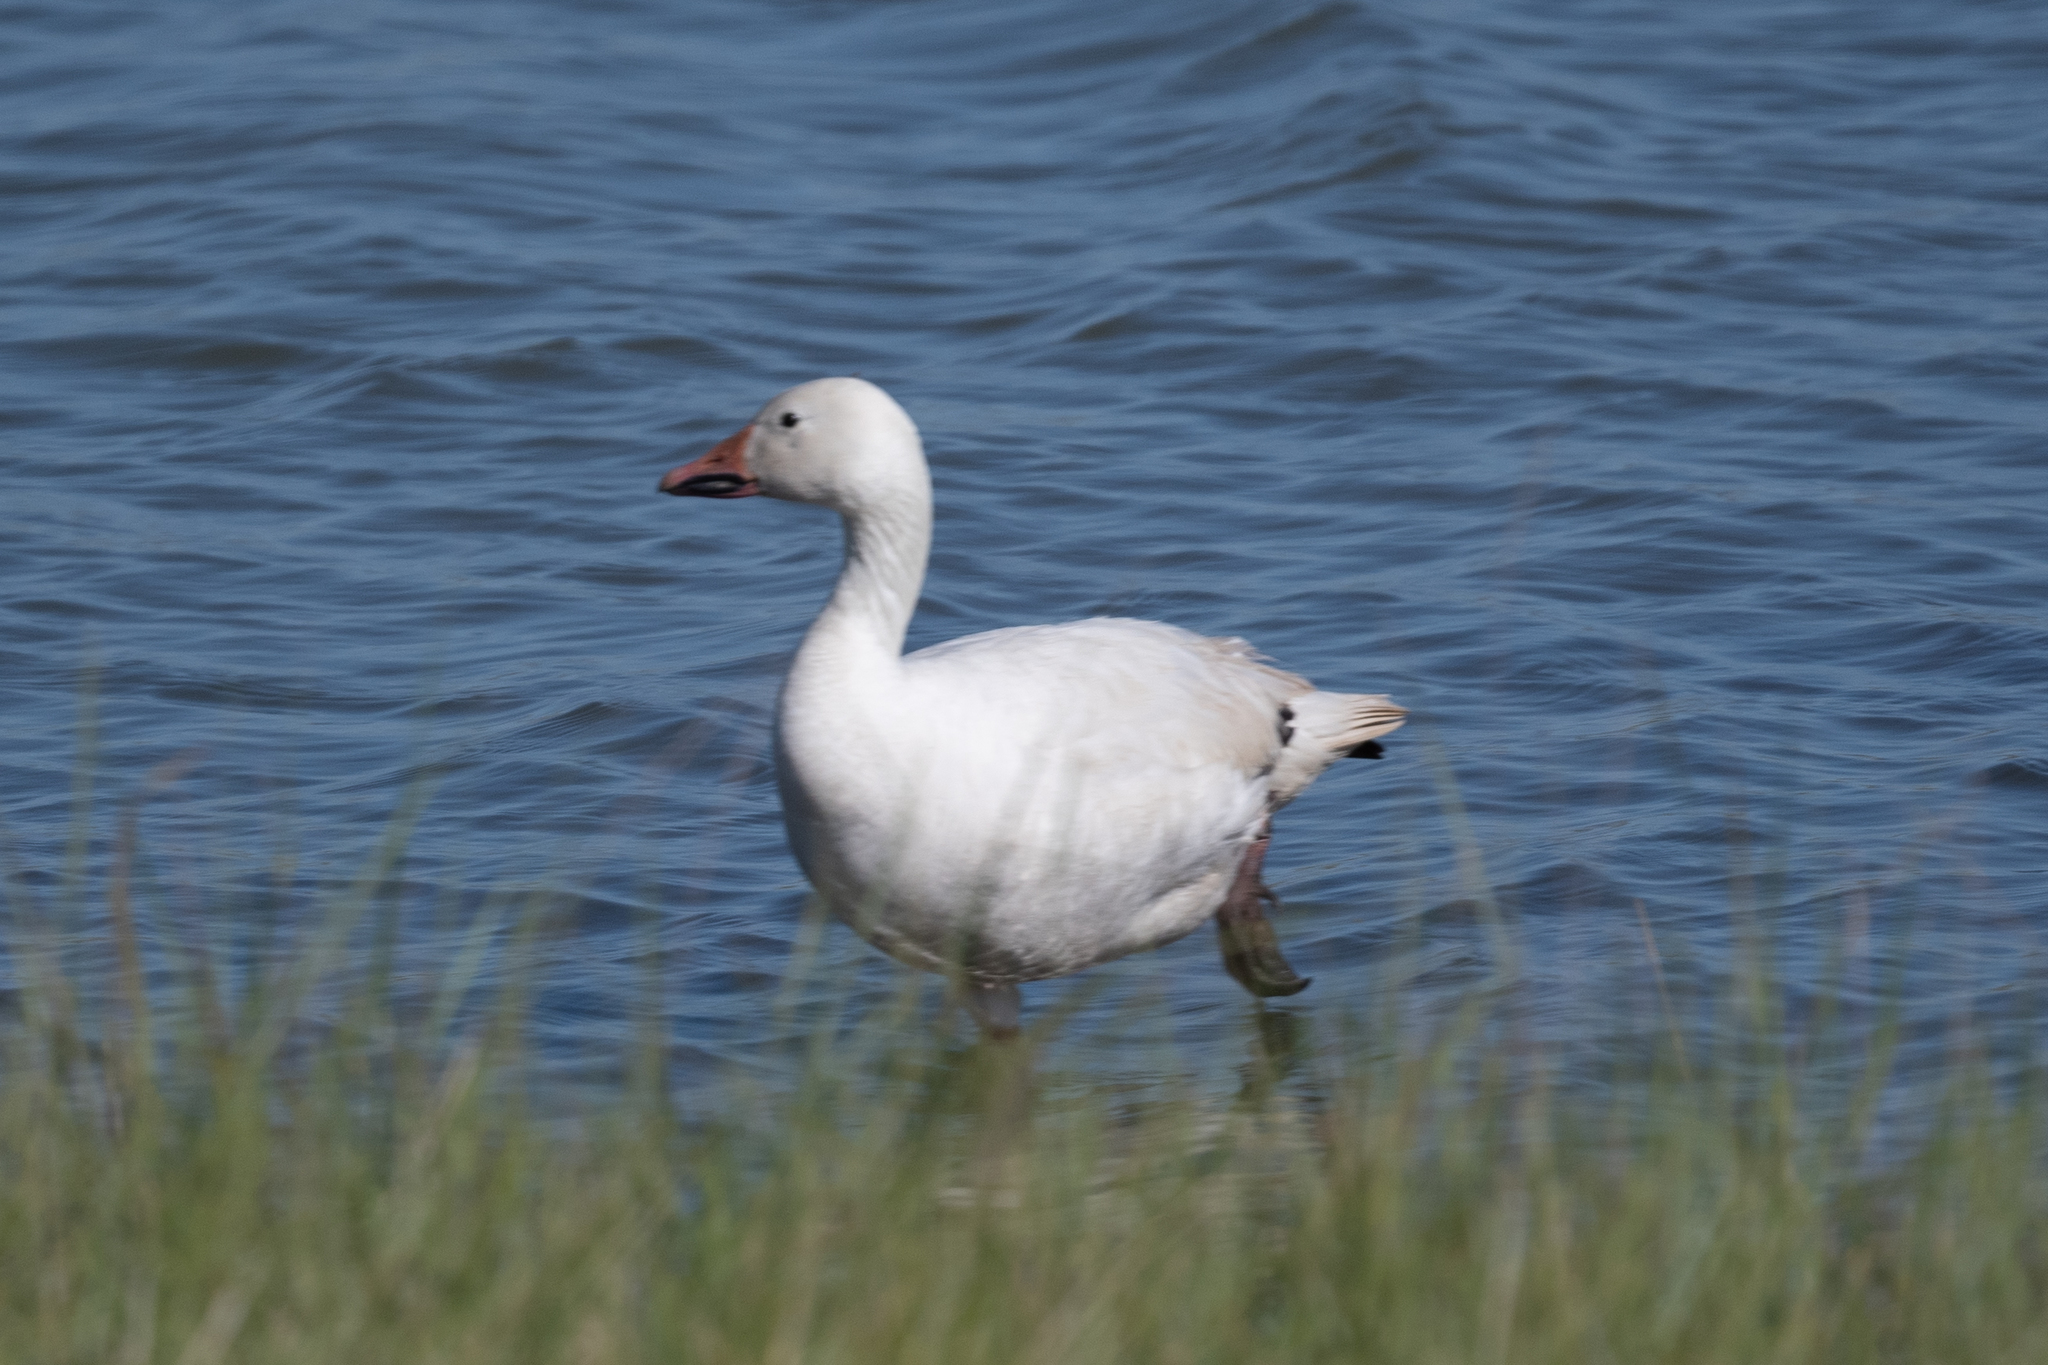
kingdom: Animalia
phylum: Chordata
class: Aves
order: Anseriformes
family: Anatidae
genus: Anser
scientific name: Anser caerulescens
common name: Snow goose
